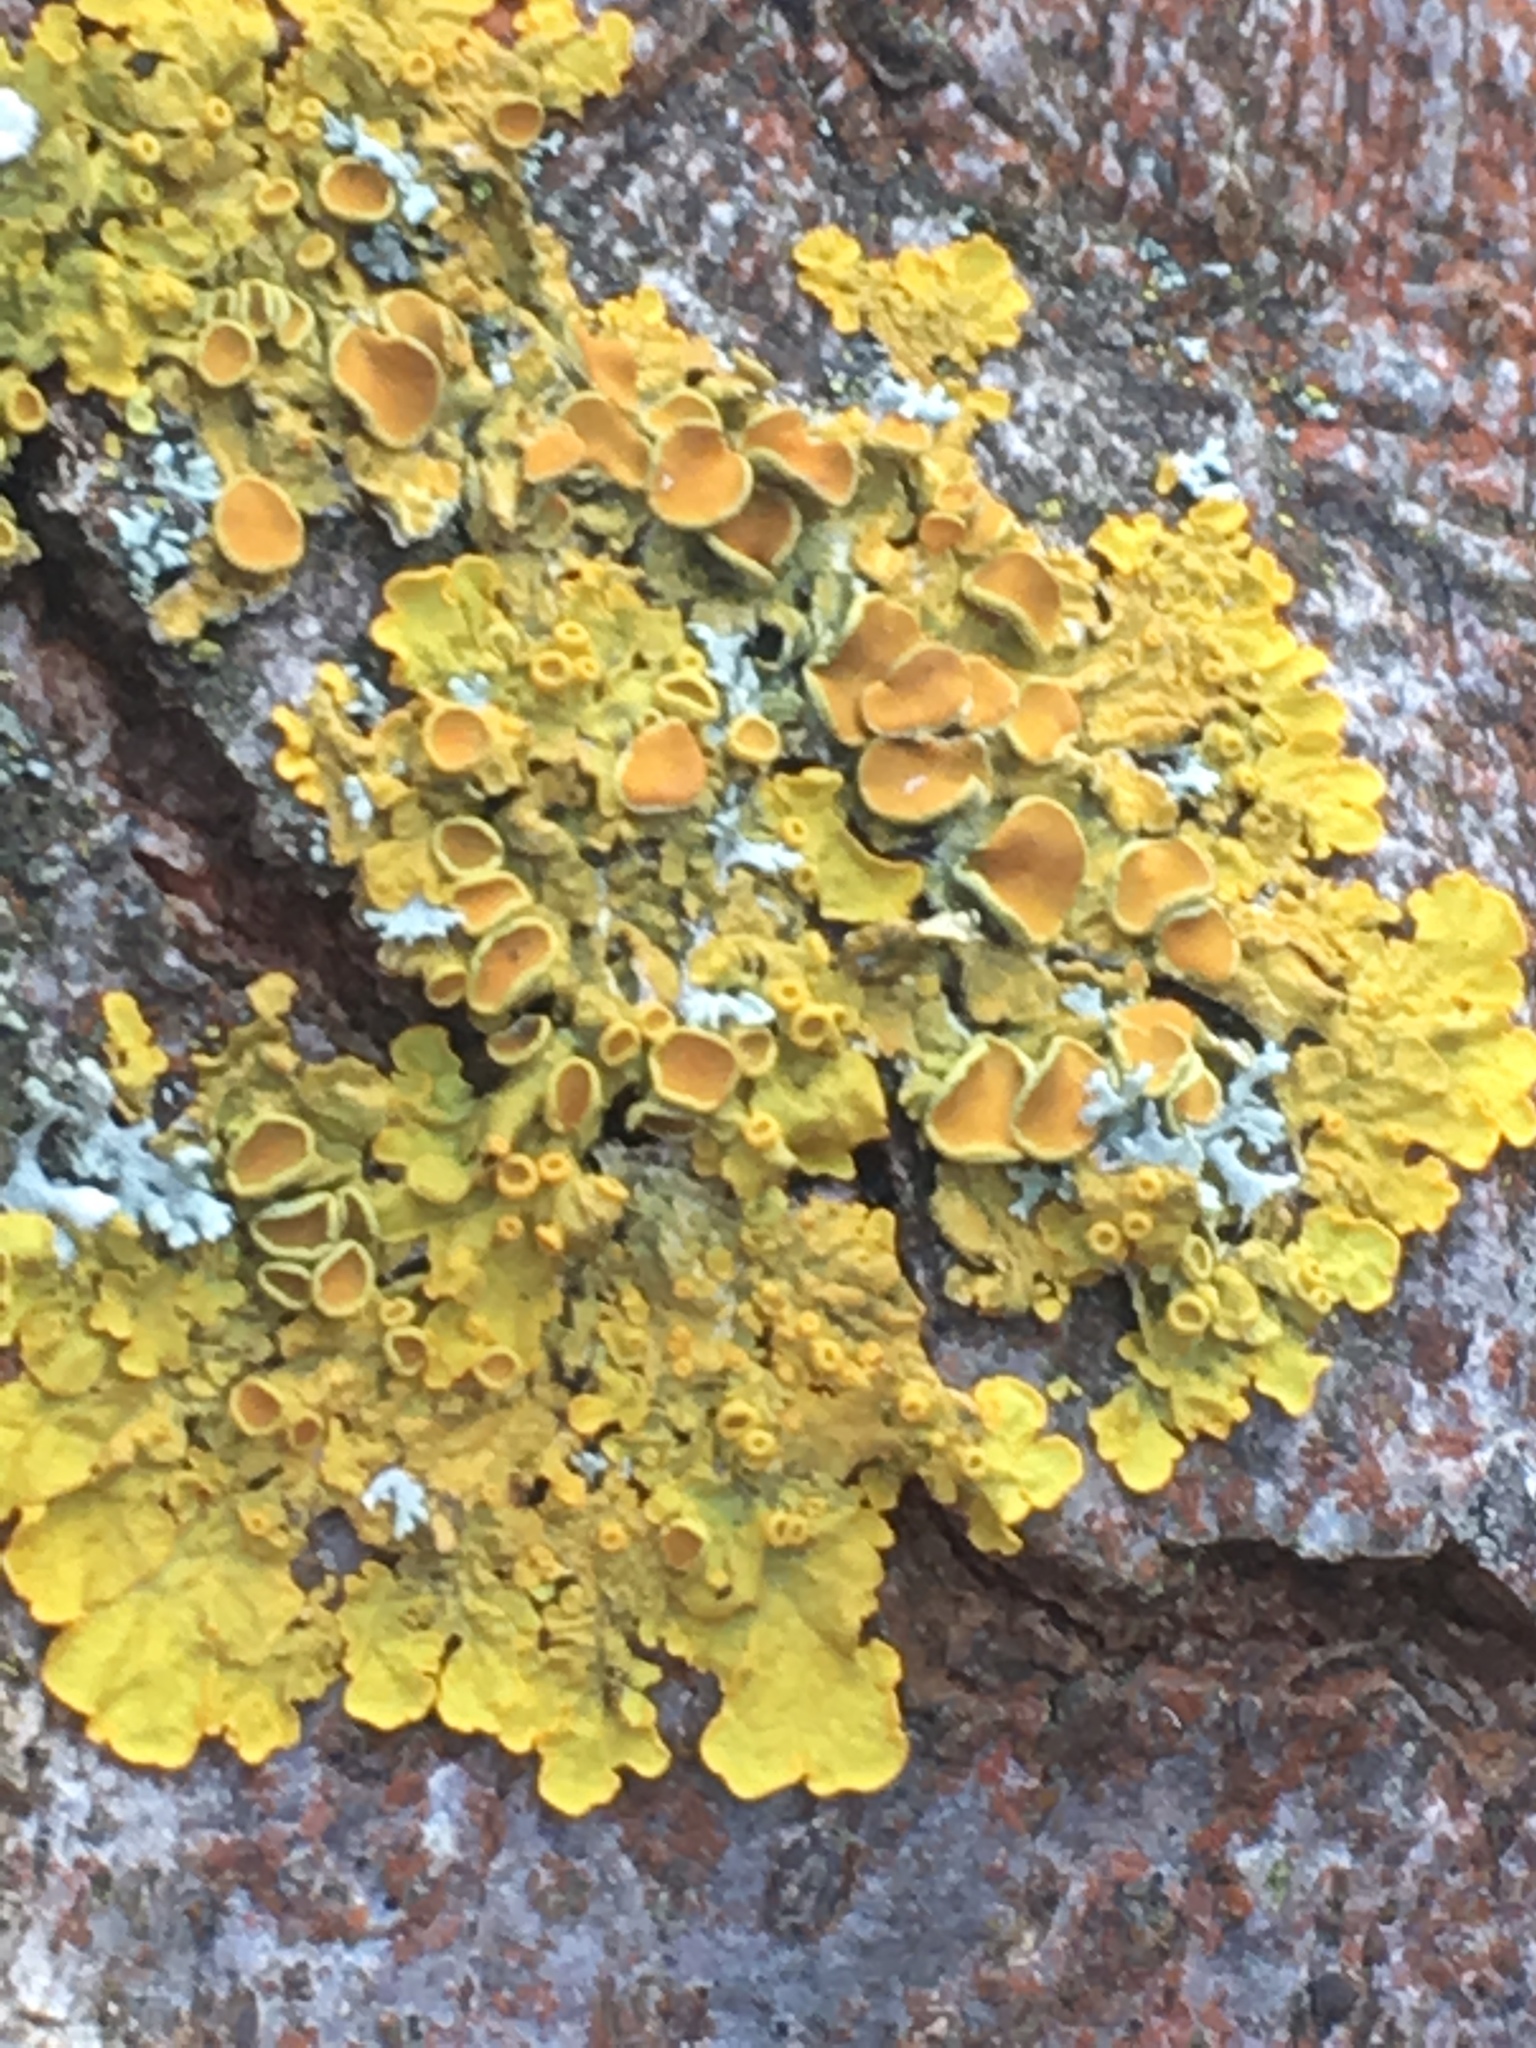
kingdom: Fungi
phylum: Ascomycota
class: Lecanoromycetes
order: Teloschistales
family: Teloschistaceae
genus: Xanthoria
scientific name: Xanthoria parietina
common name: Common orange lichen
